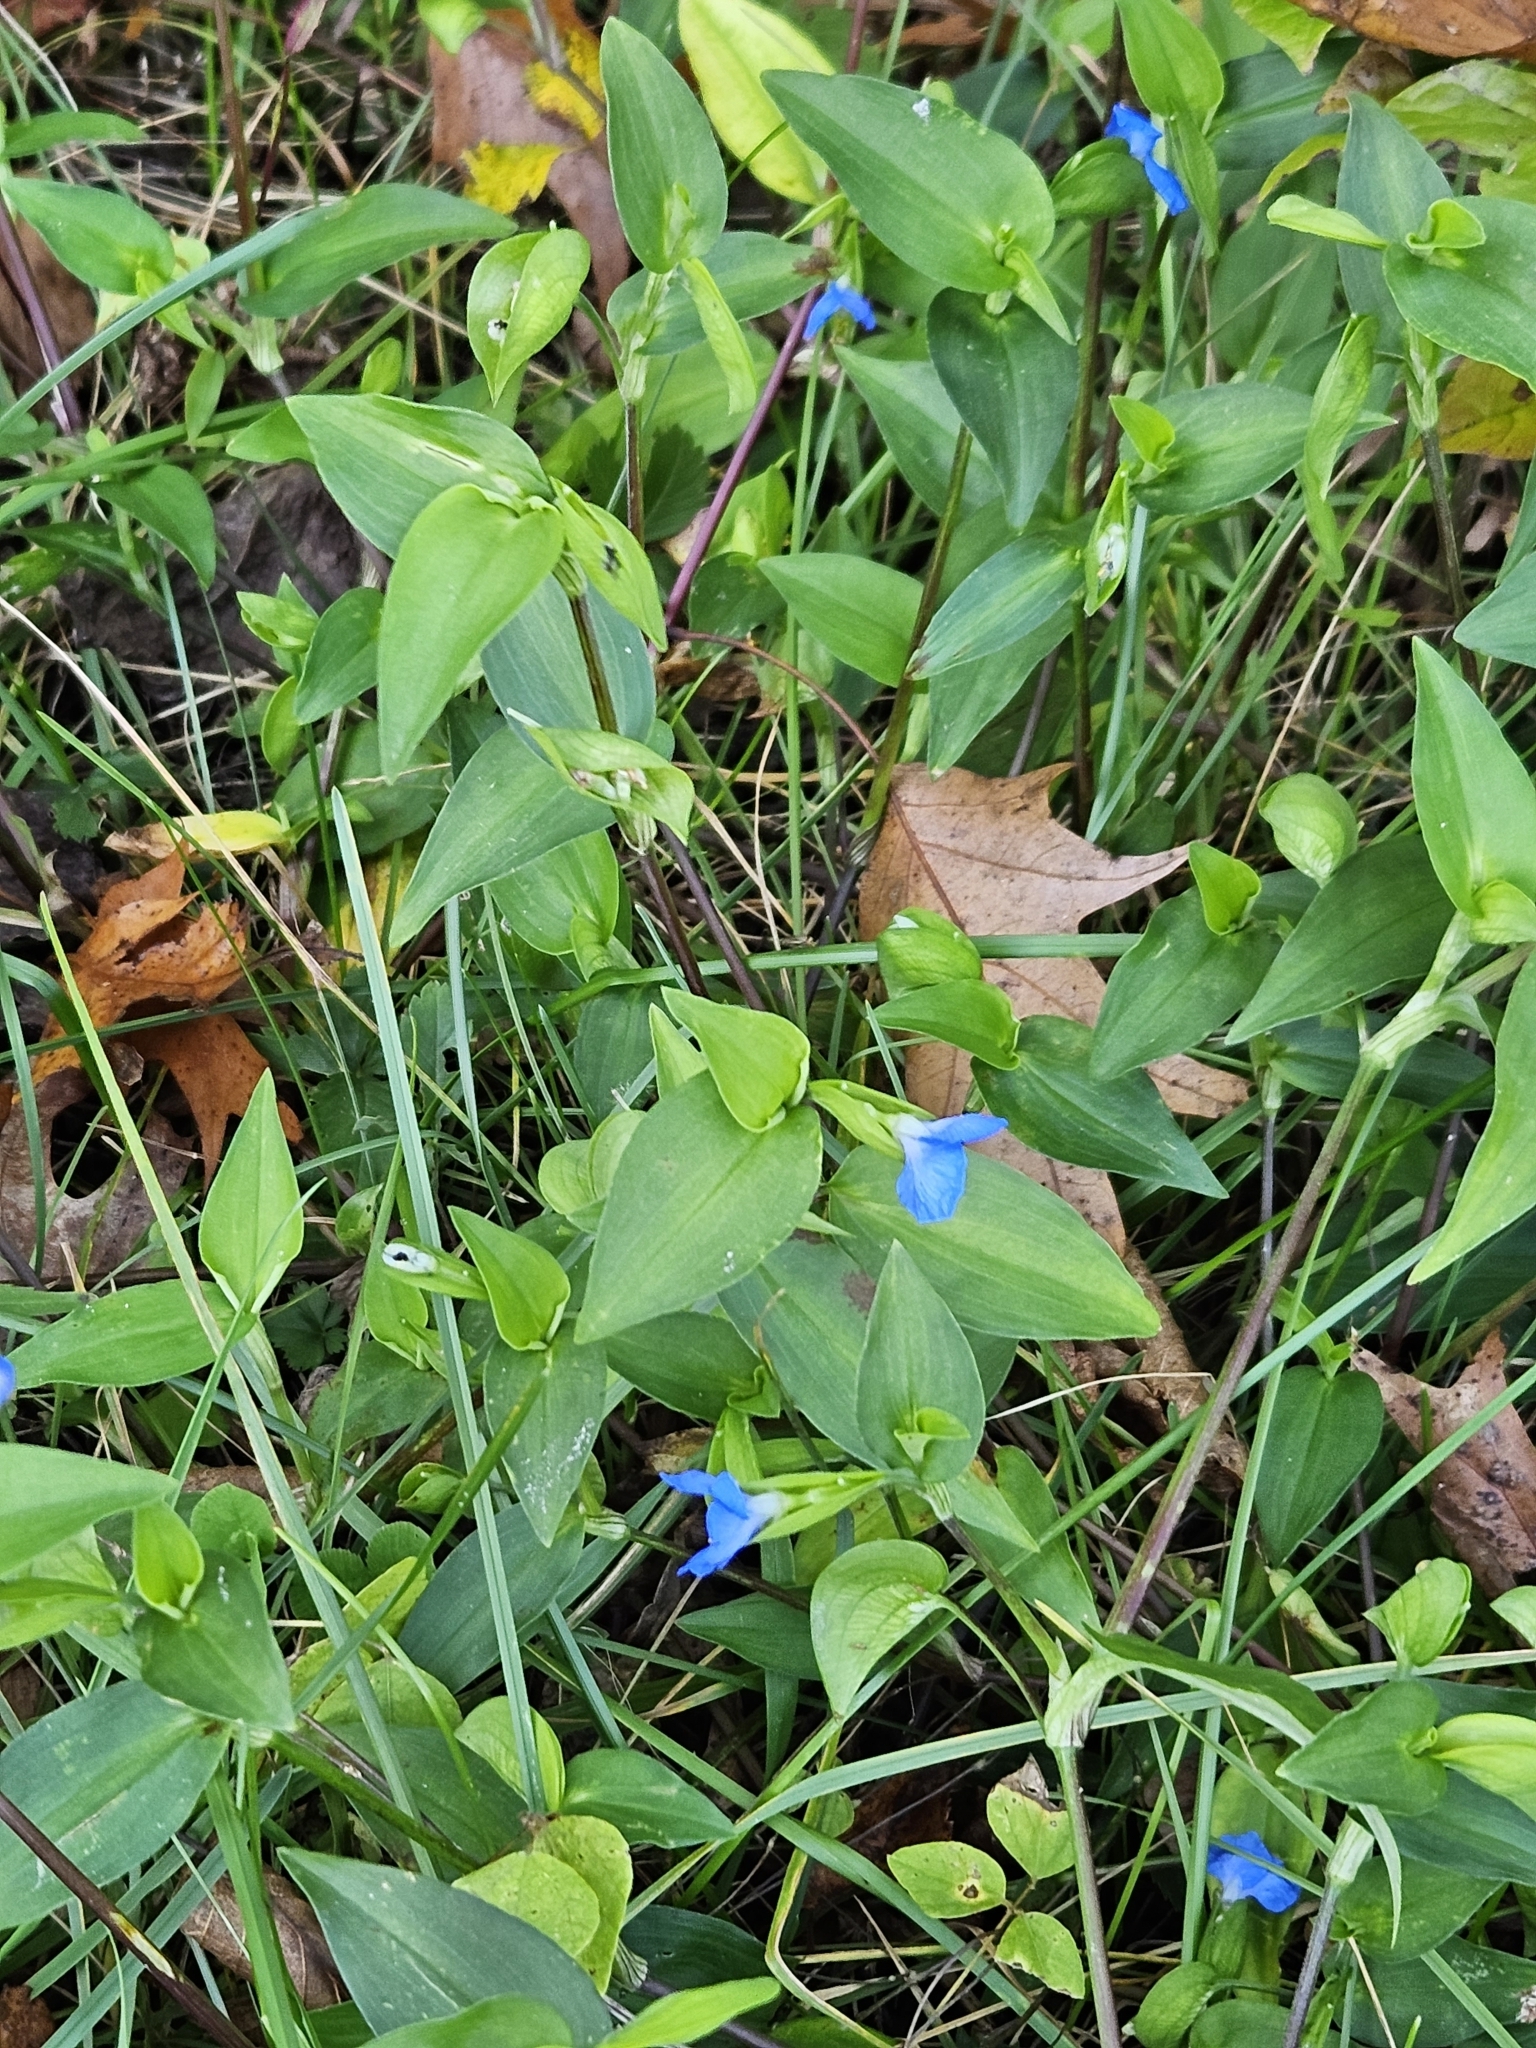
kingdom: Plantae
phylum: Tracheophyta
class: Liliopsida
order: Commelinales
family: Commelinaceae
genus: Commelina
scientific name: Commelina communis
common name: Asiatic dayflower
